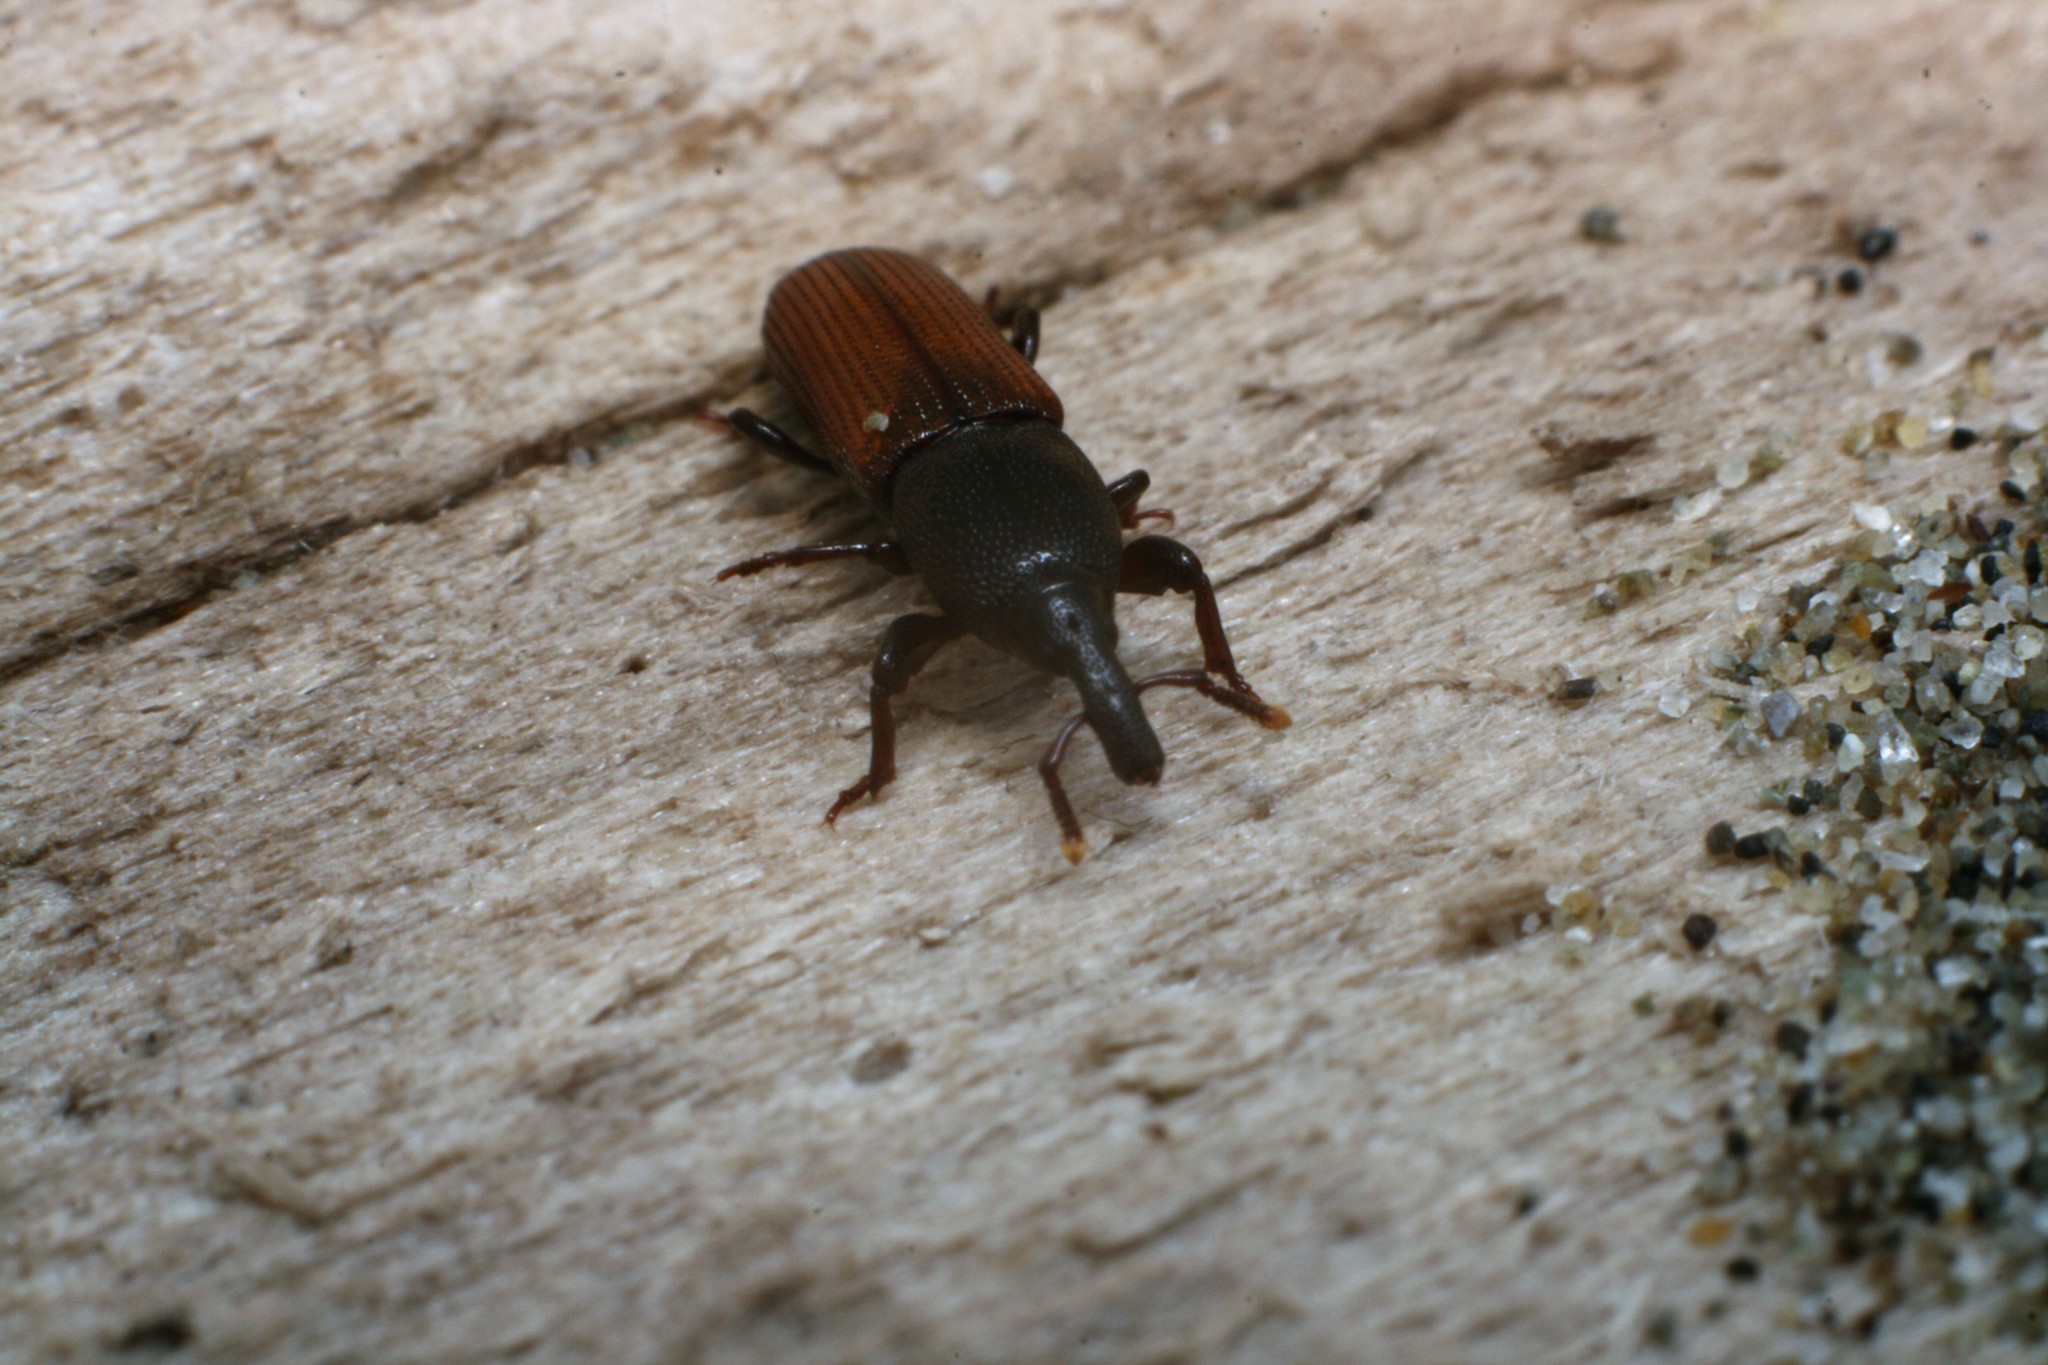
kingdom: Animalia
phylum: Arthropoda
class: Insecta
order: Coleoptera
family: Curculionidae
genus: Mesites
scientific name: Mesites pallidipennis
